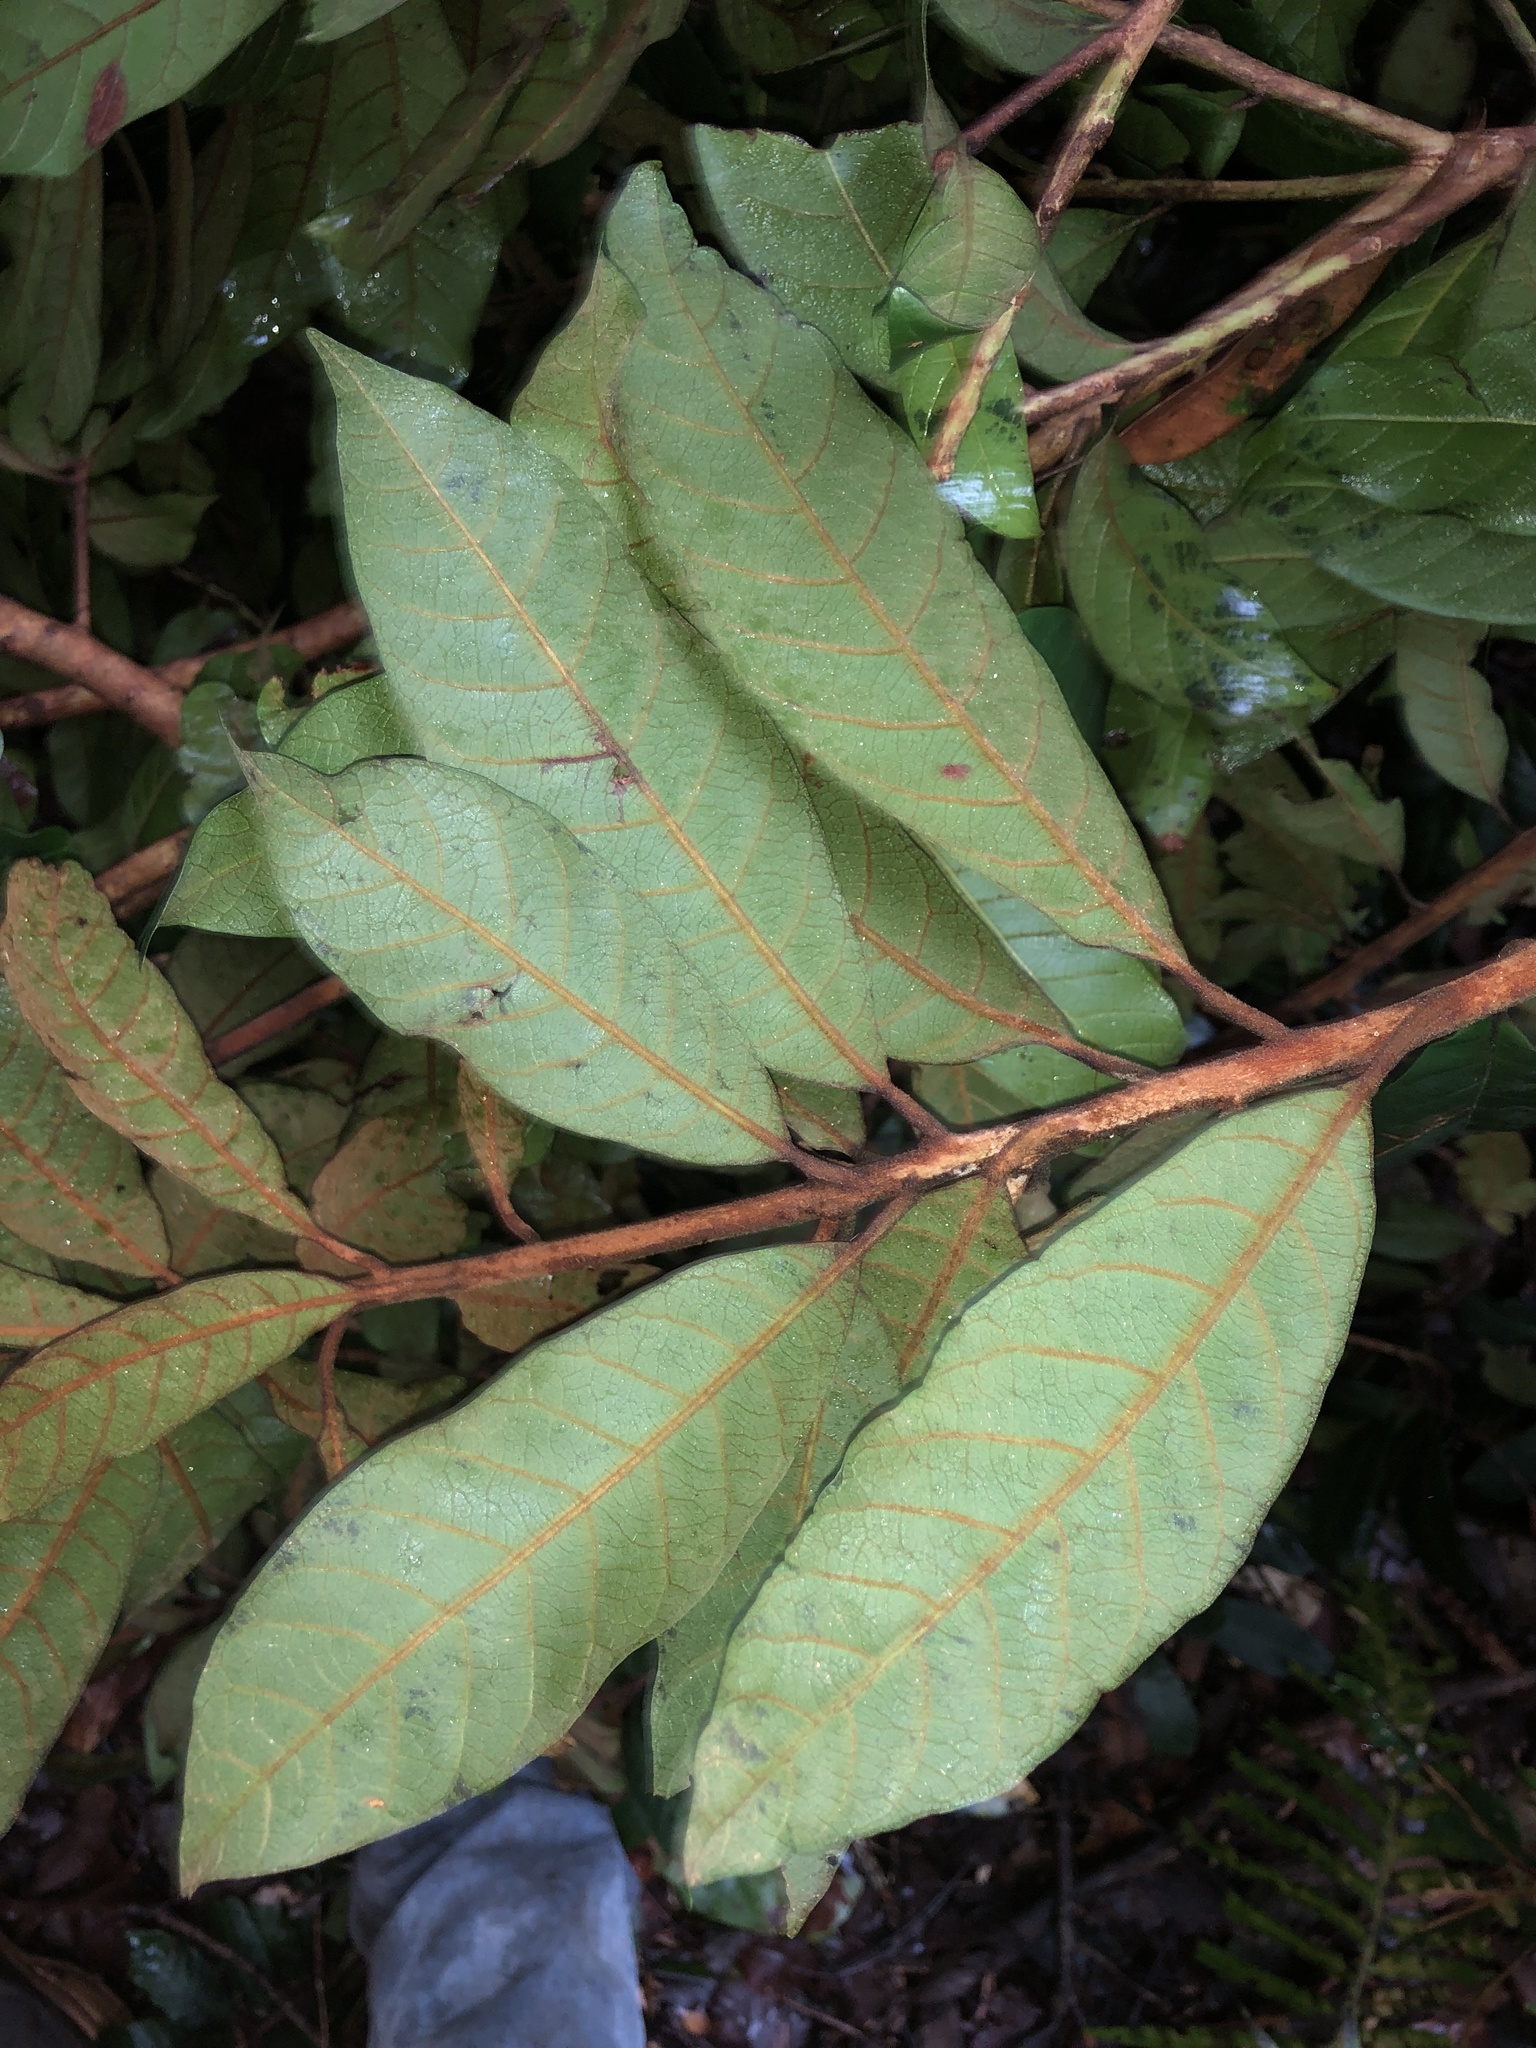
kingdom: Plantae
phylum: Tracheophyta
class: Magnoliopsida
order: Ericales
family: Sapotaceae
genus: Niemeyera
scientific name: Niemeyera whitei
